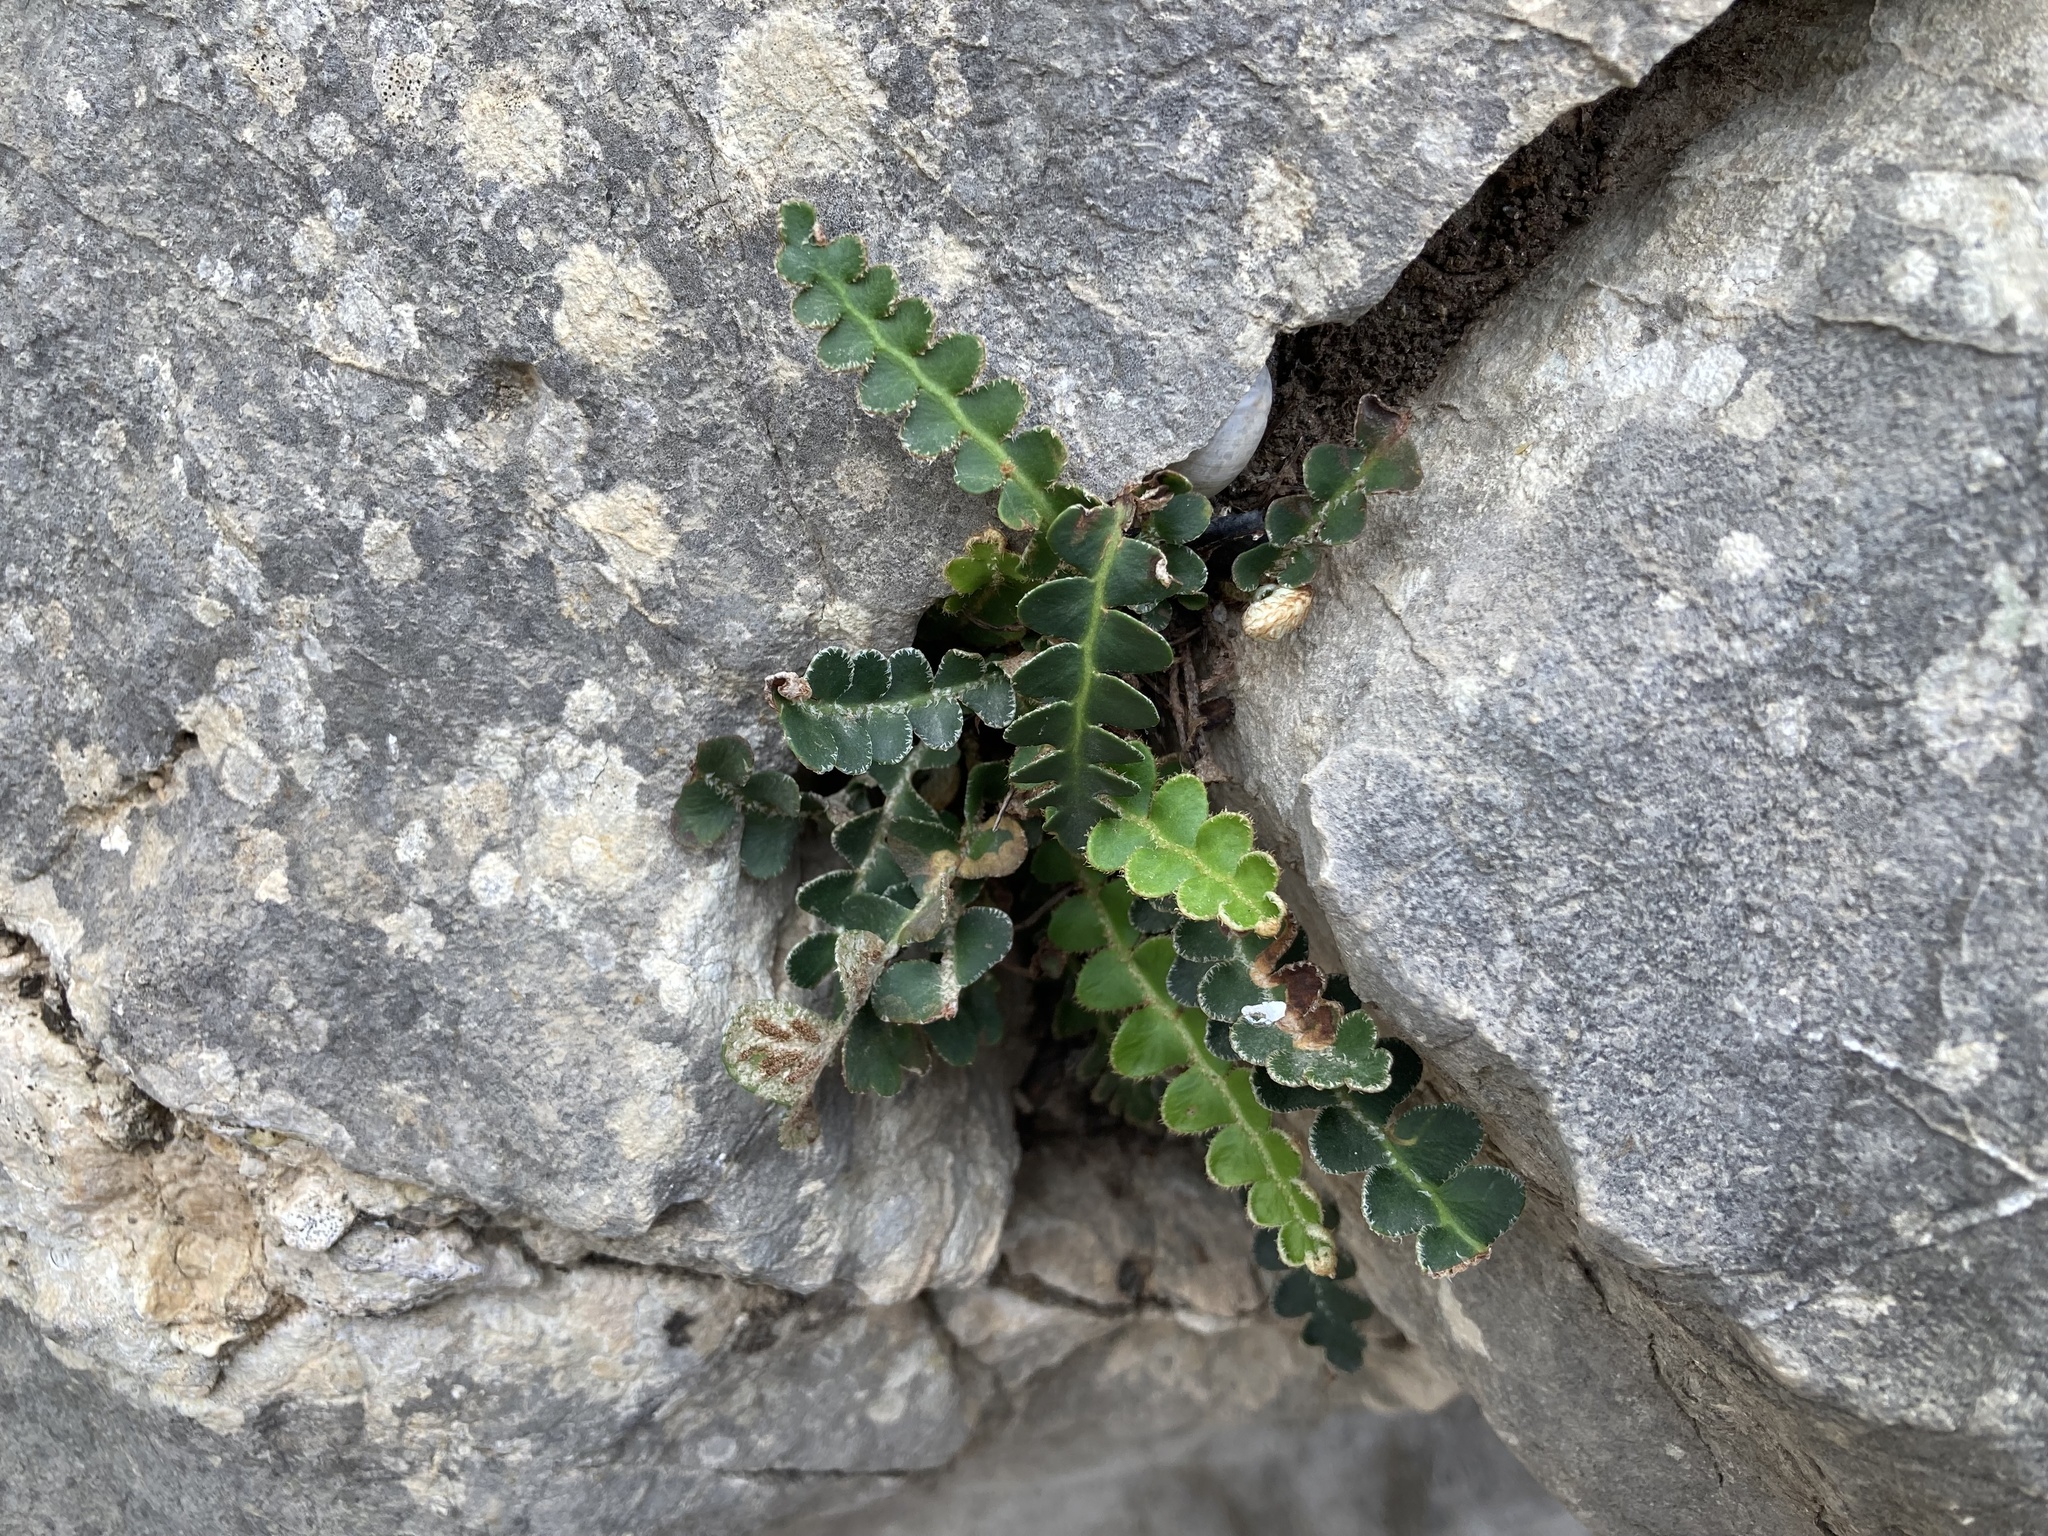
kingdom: Plantae
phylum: Tracheophyta
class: Polypodiopsida
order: Polypodiales
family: Aspleniaceae
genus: Asplenium
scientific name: Asplenium ceterach
